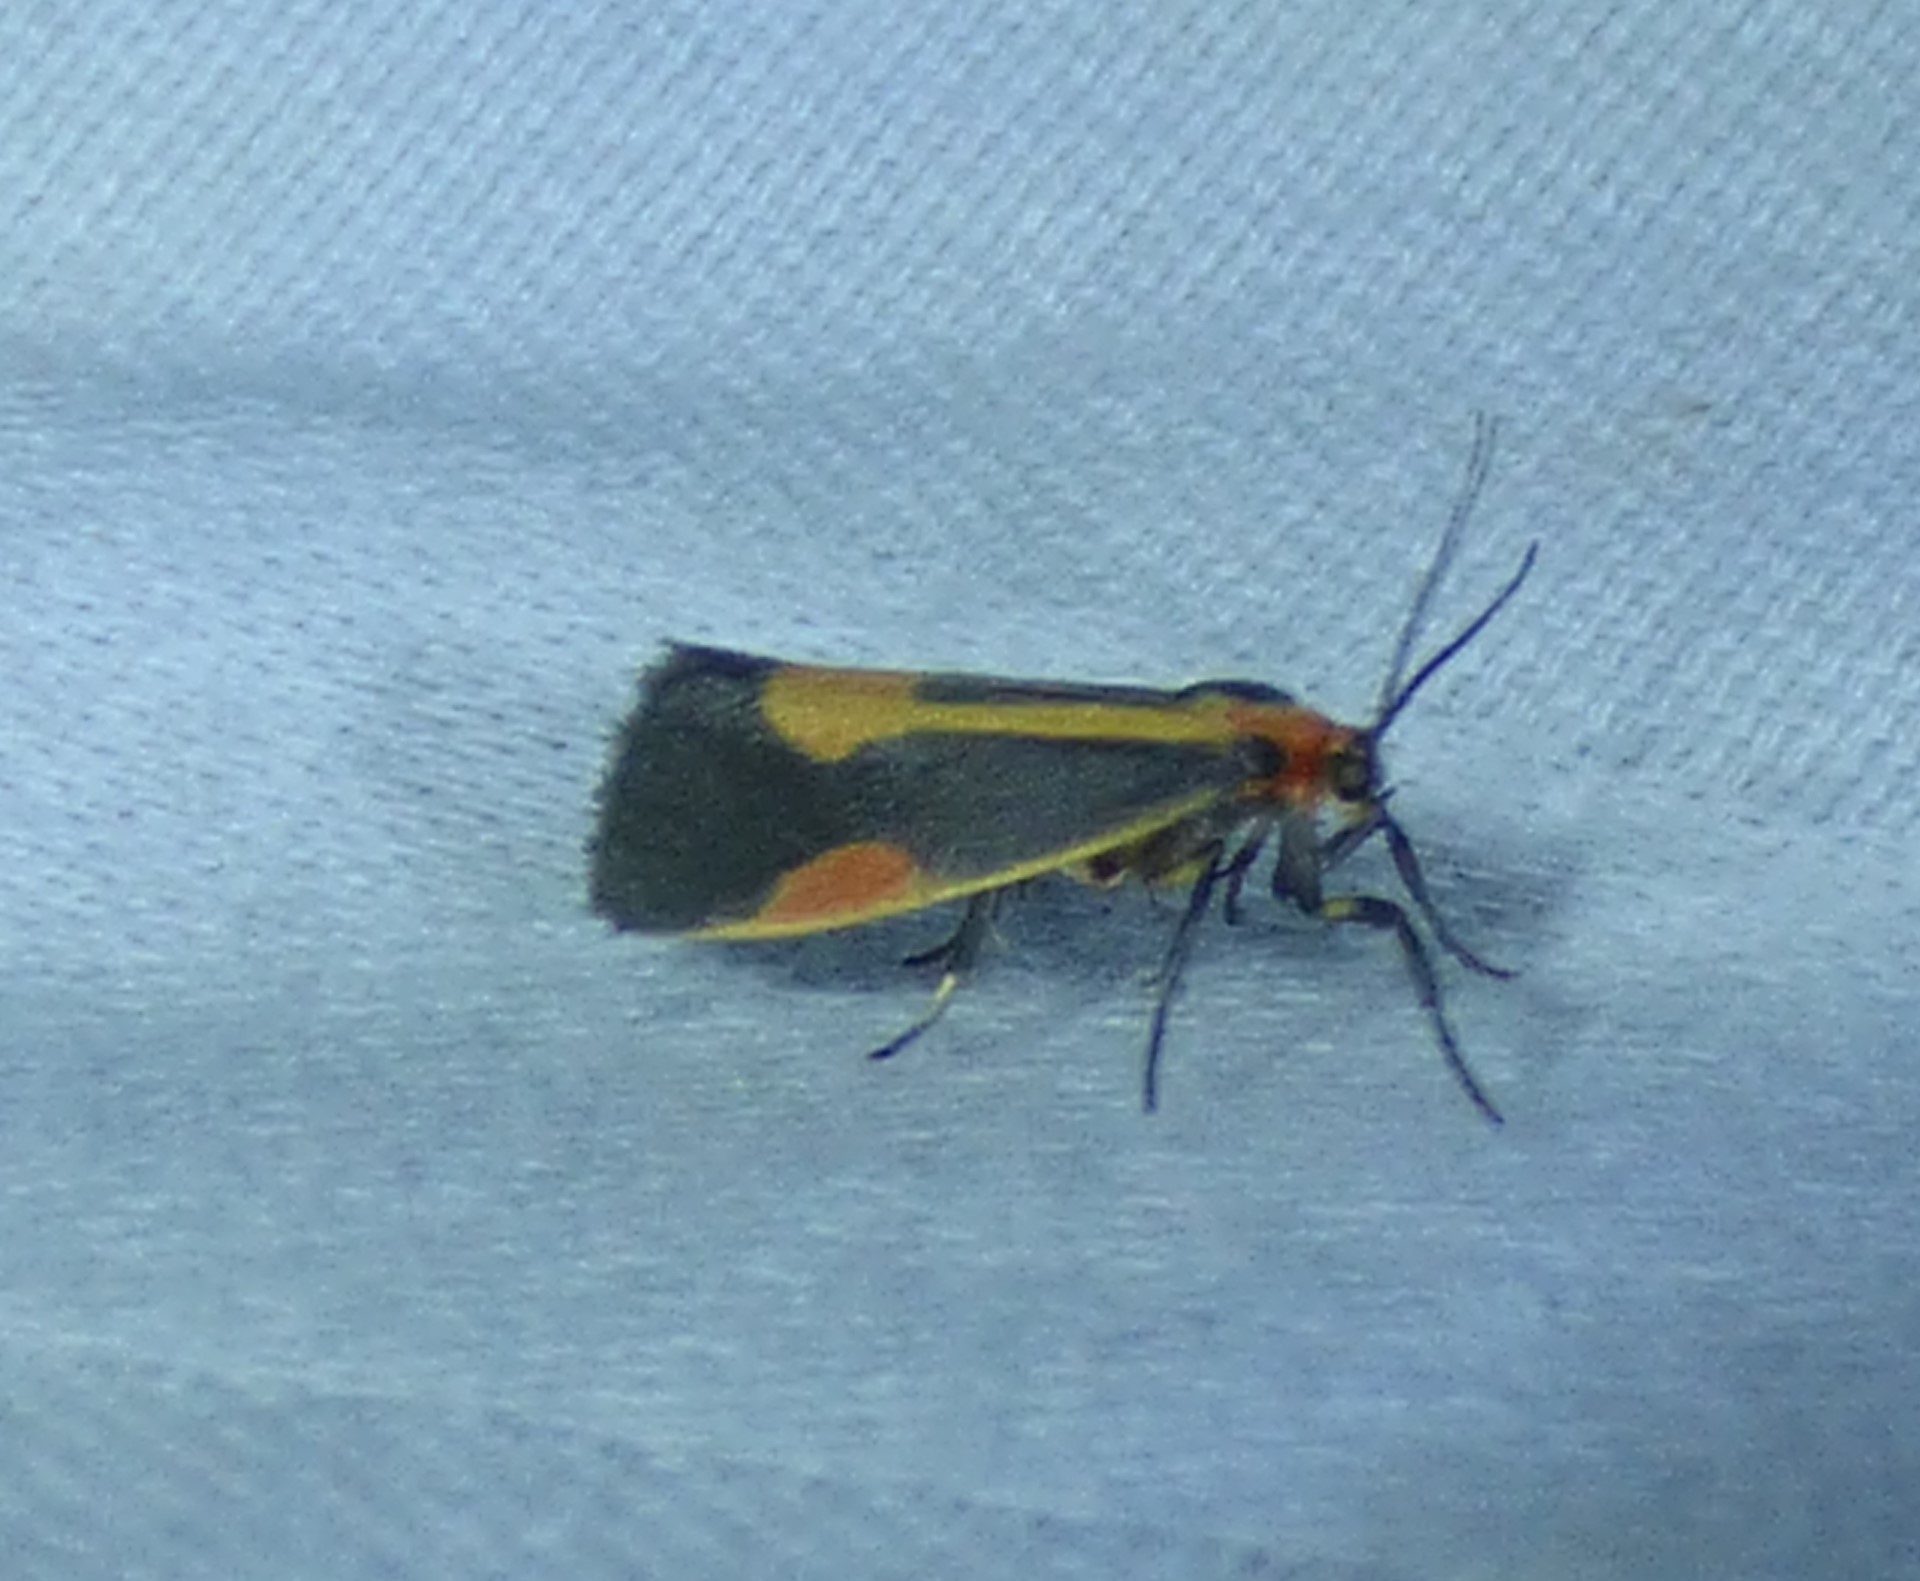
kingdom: Animalia
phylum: Arthropoda
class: Insecta
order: Lepidoptera
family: Erebidae
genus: Cisthene
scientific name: Cisthene packardii
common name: Packard's lichen moth
